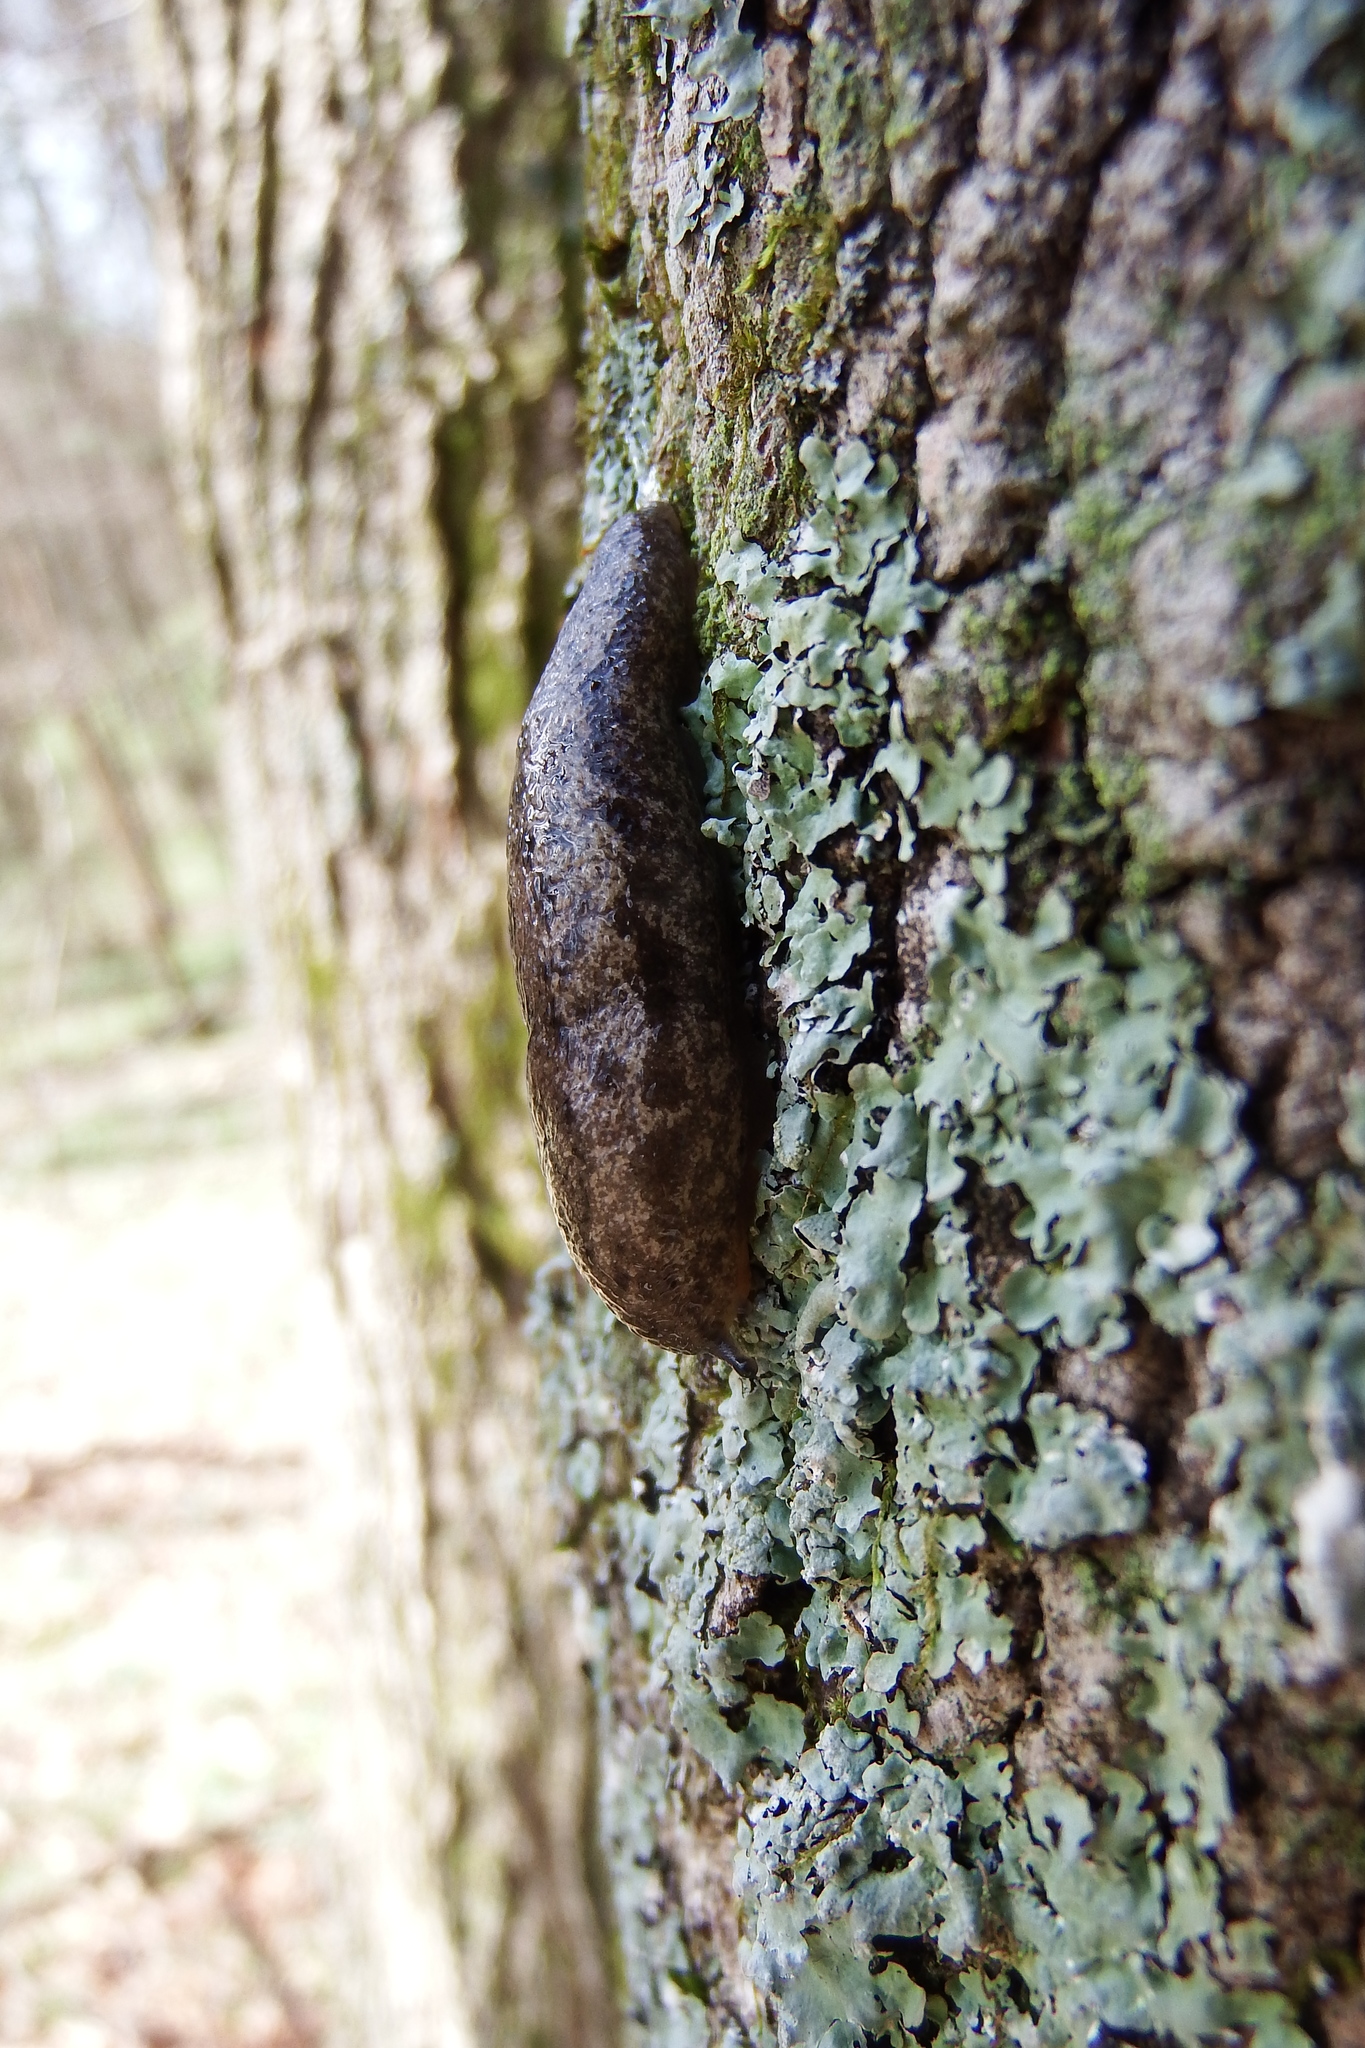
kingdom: Animalia
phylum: Mollusca
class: Gastropoda
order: Stylommatophora
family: Philomycidae
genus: Philomycus
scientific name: Philomycus carolinianus
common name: Carolina mantleslug
